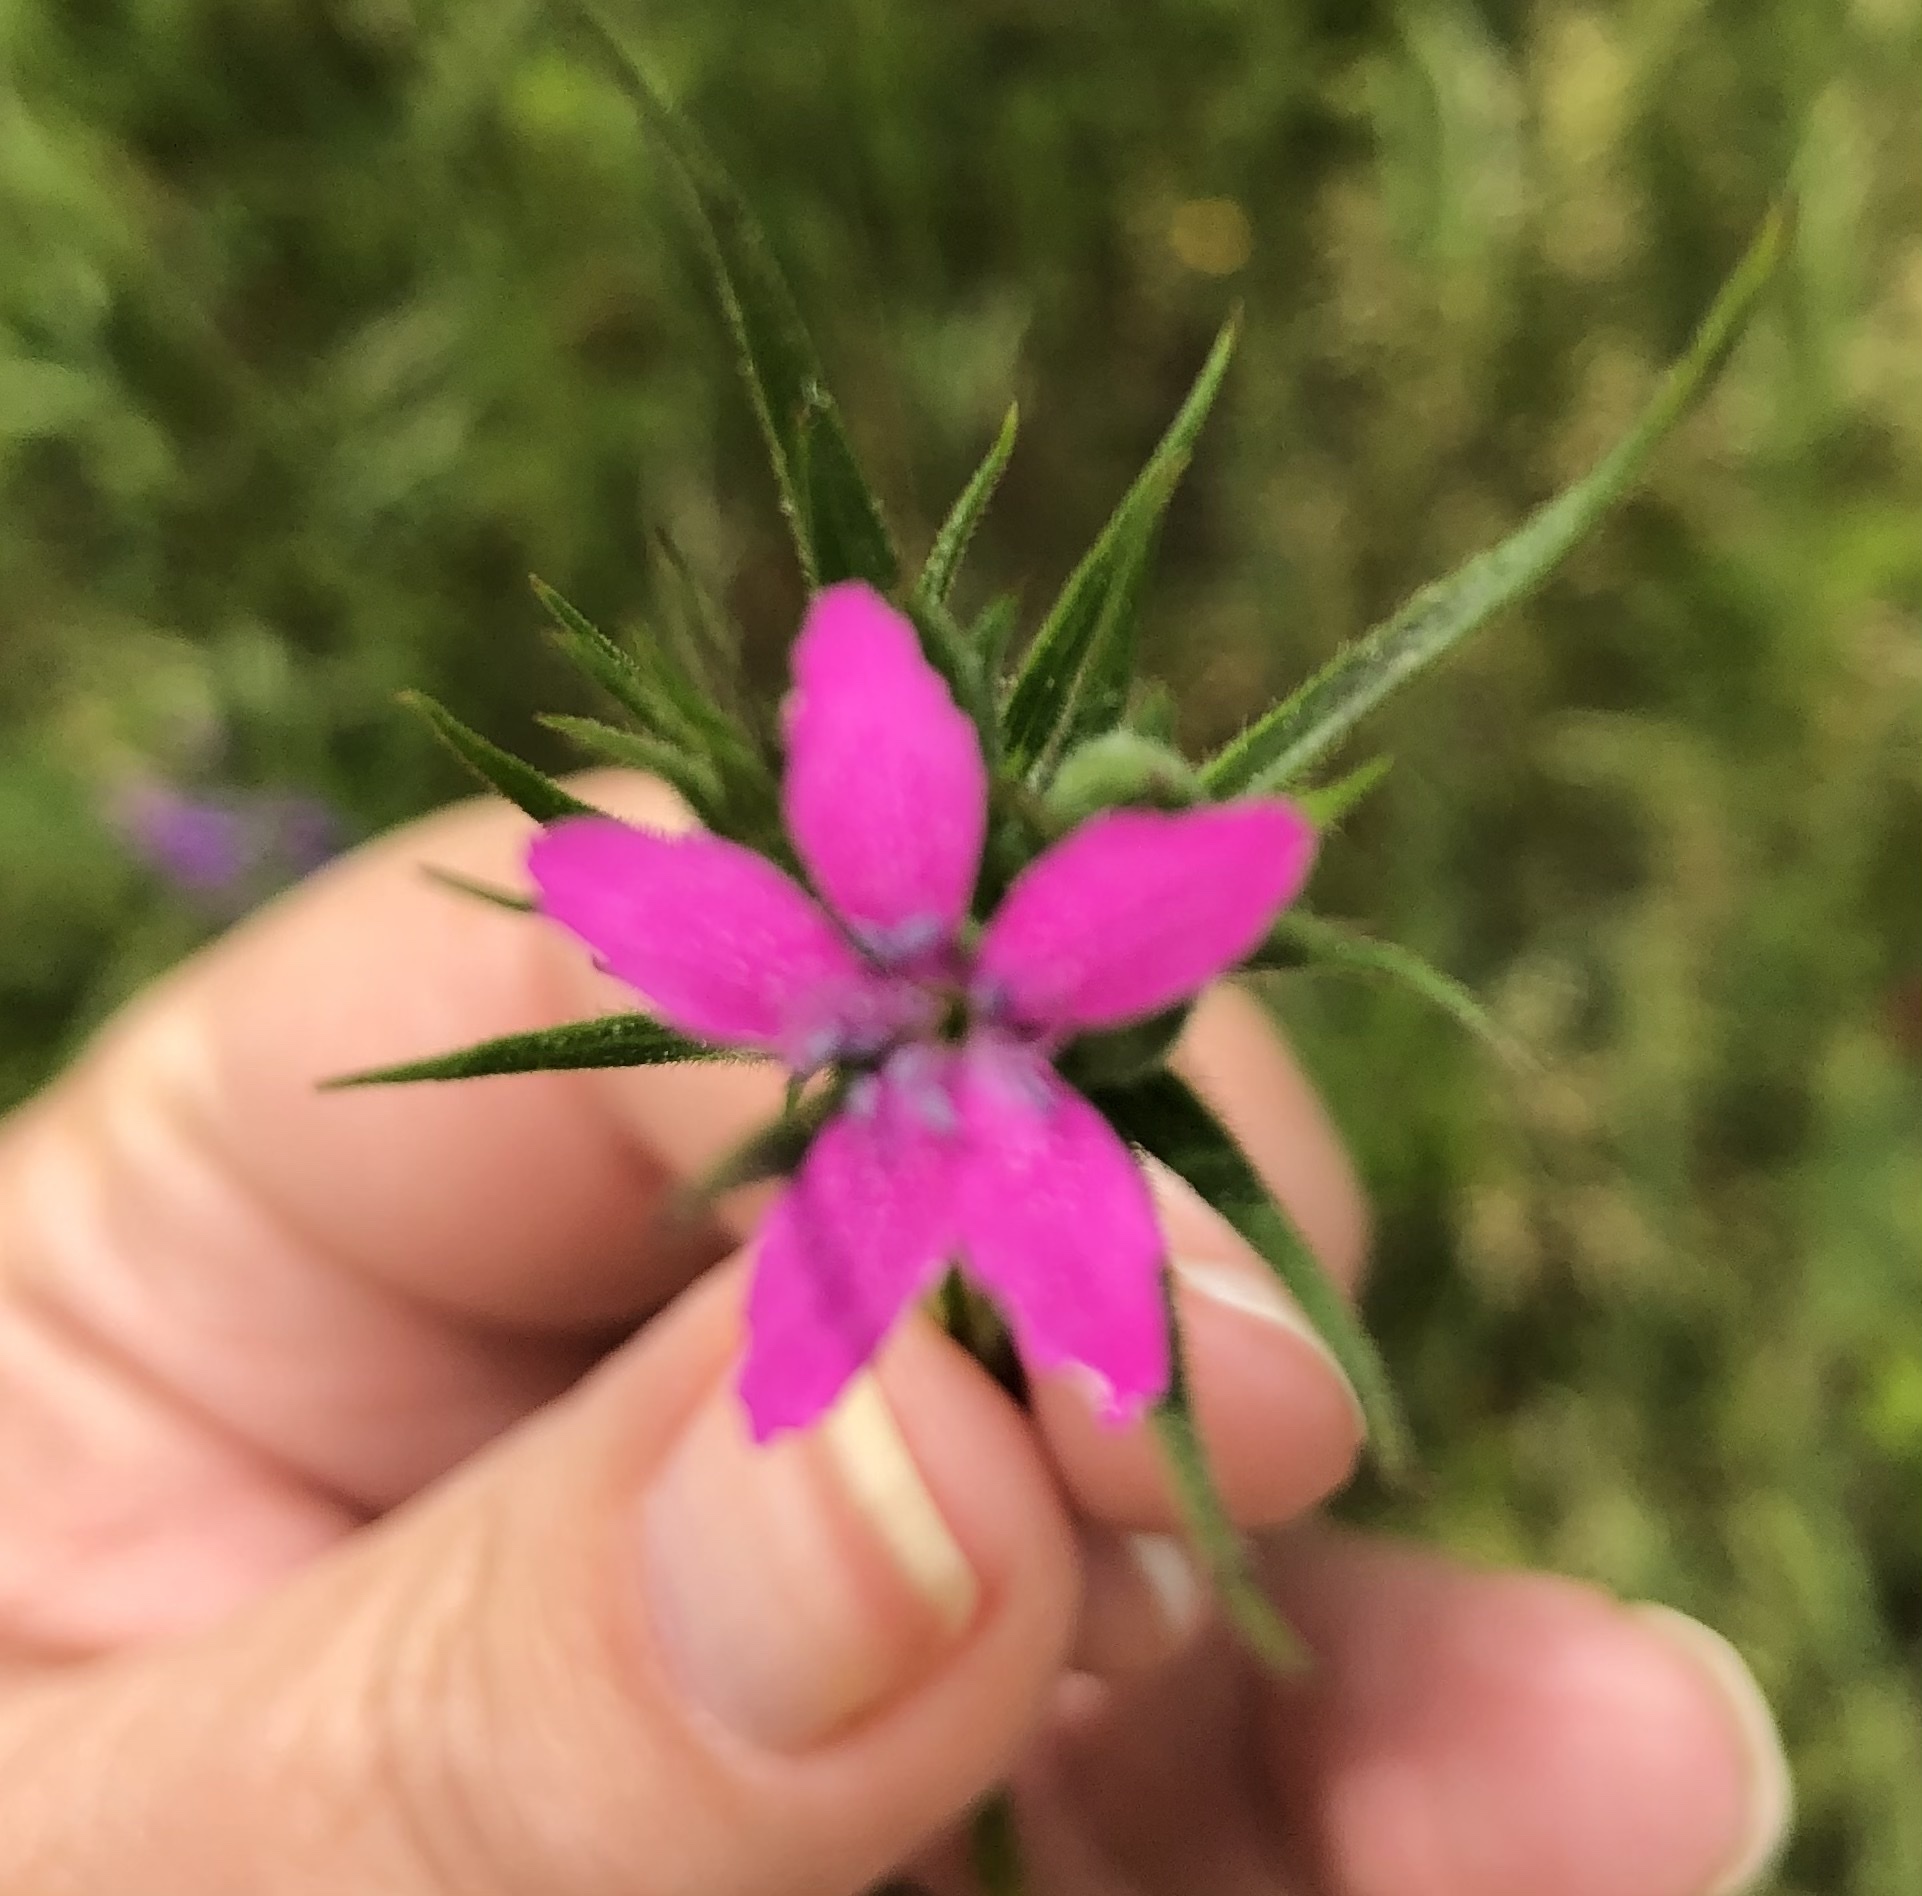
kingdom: Plantae
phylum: Tracheophyta
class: Magnoliopsida
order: Caryophyllales
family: Caryophyllaceae
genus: Dianthus
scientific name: Dianthus armeria
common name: Deptford pink
